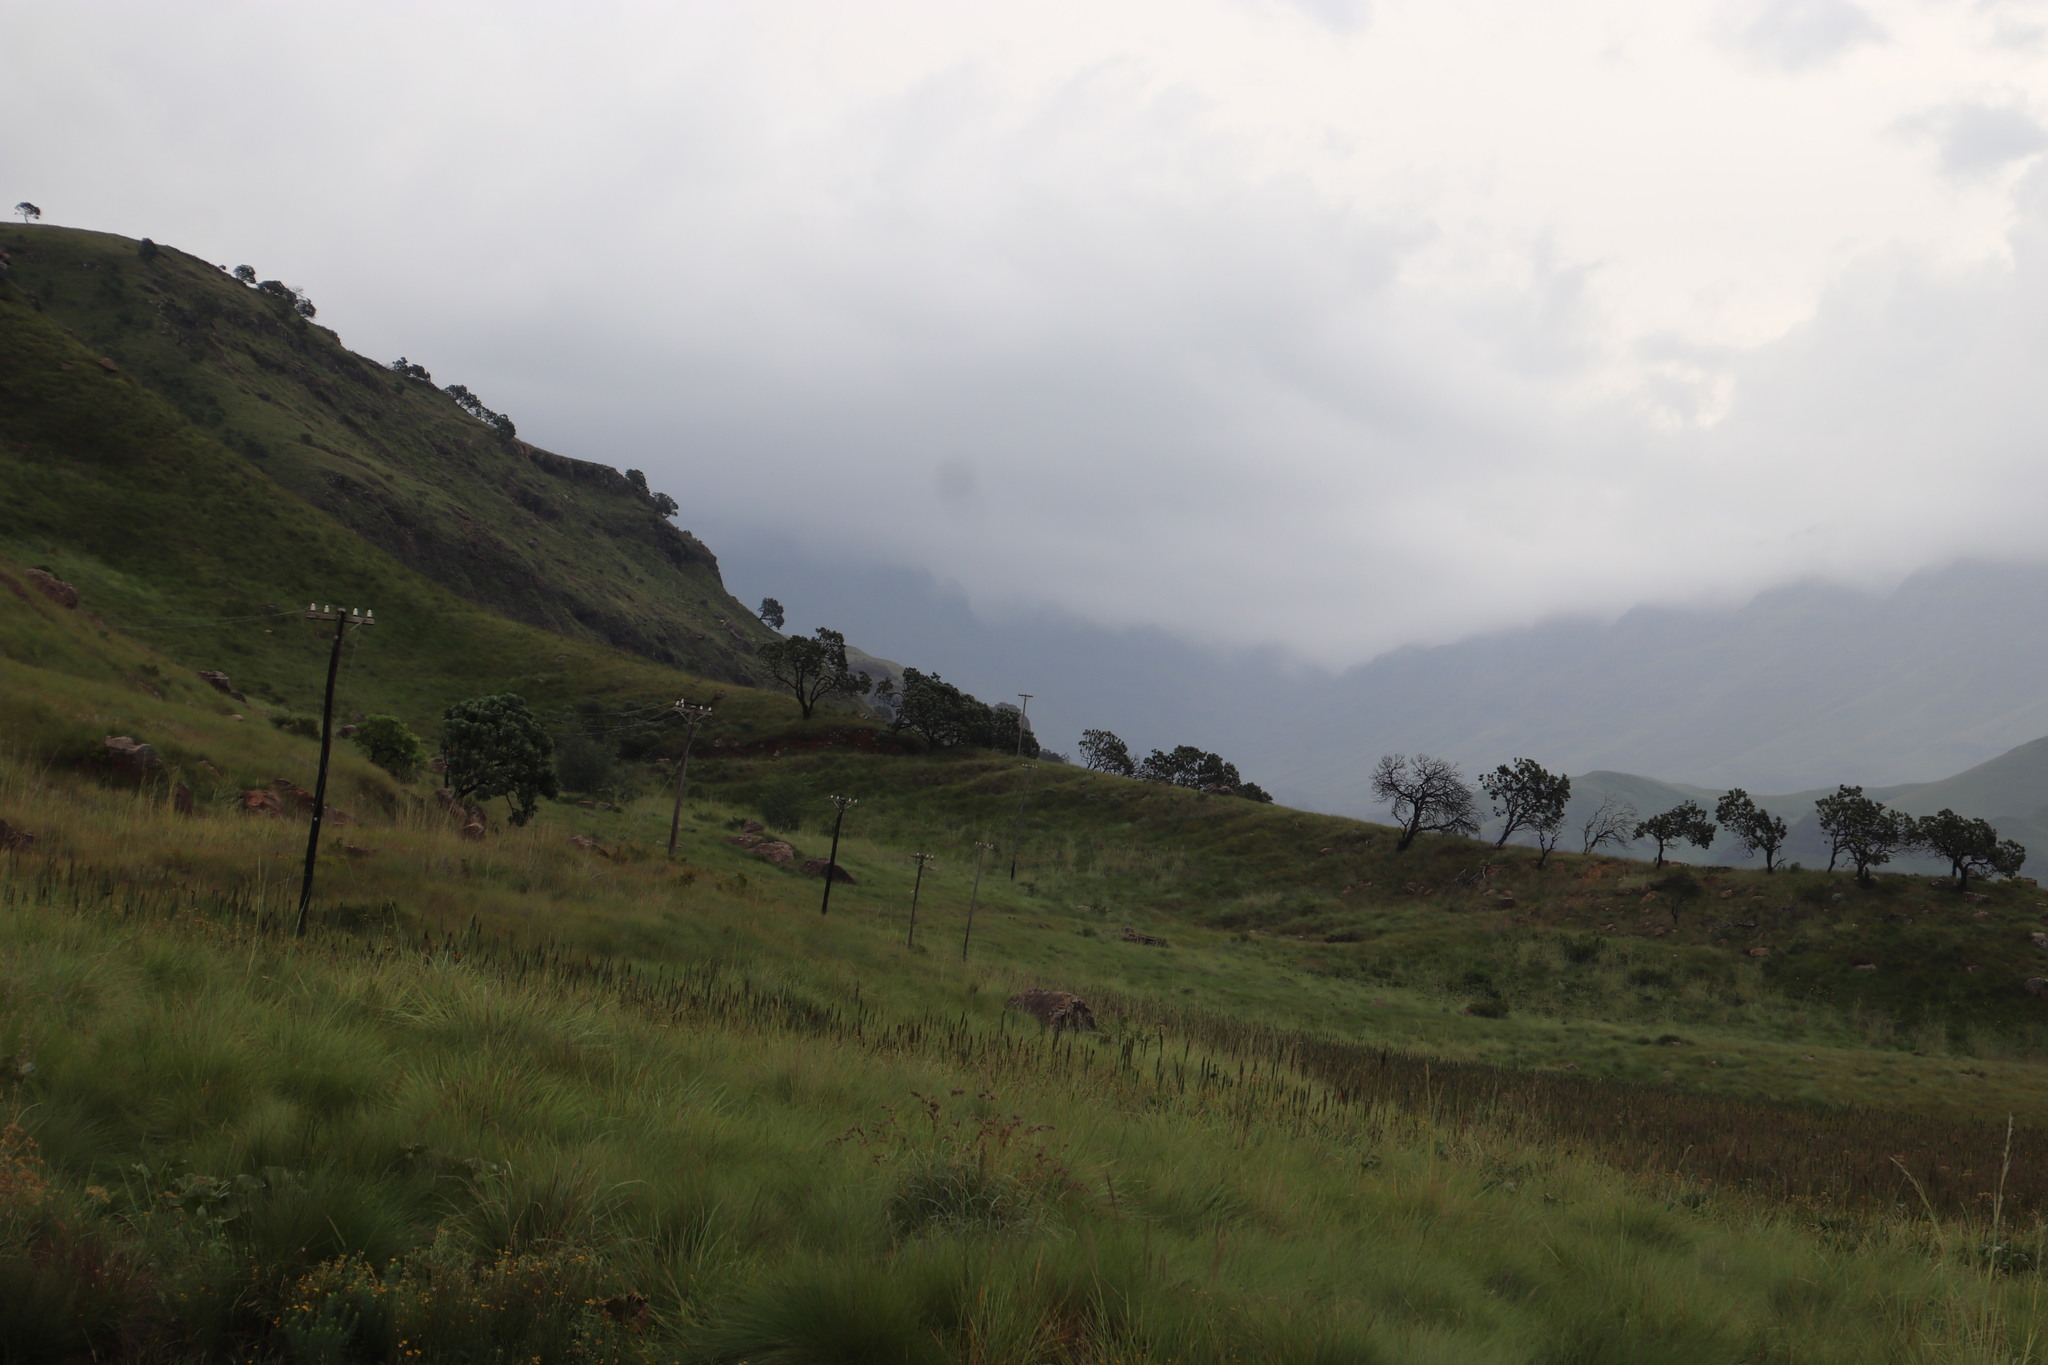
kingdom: Plantae
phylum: Tracheophyta
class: Magnoliopsida
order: Proteales
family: Proteaceae
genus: Protea
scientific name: Protea roupelliae
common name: Silver sugarbush
